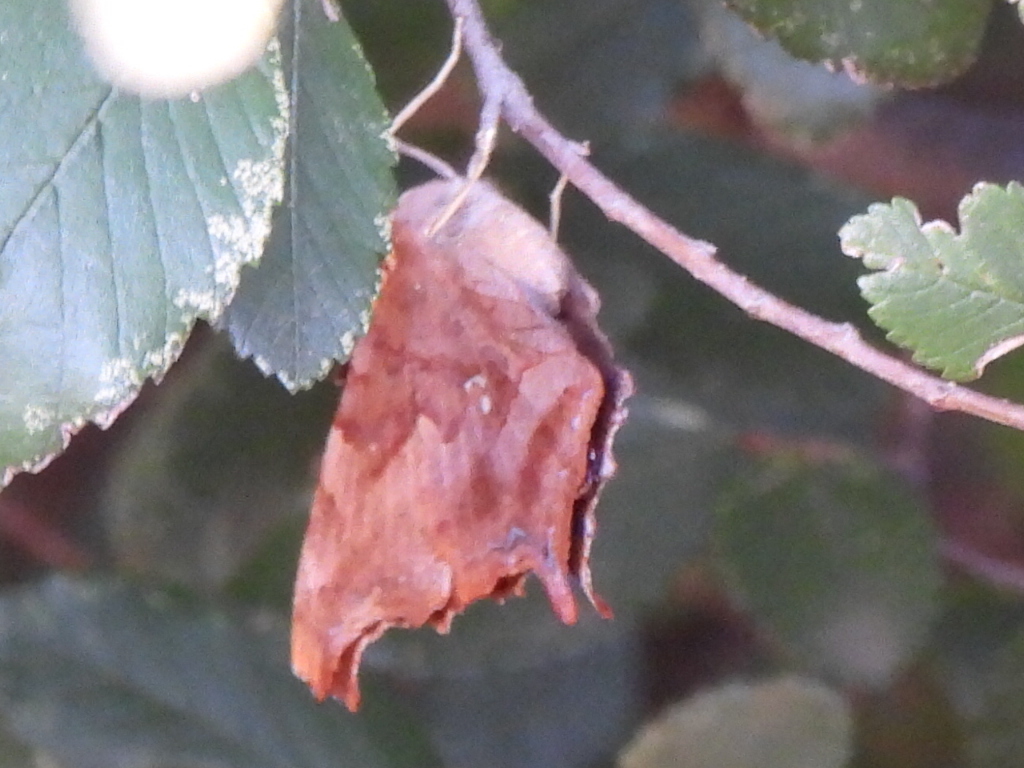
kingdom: Animalia
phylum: Arthropoda
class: Insecta
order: Lepidoptera
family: Nymphalidae
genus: Polygonia
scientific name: Polygonia interrogationis
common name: Question mark
